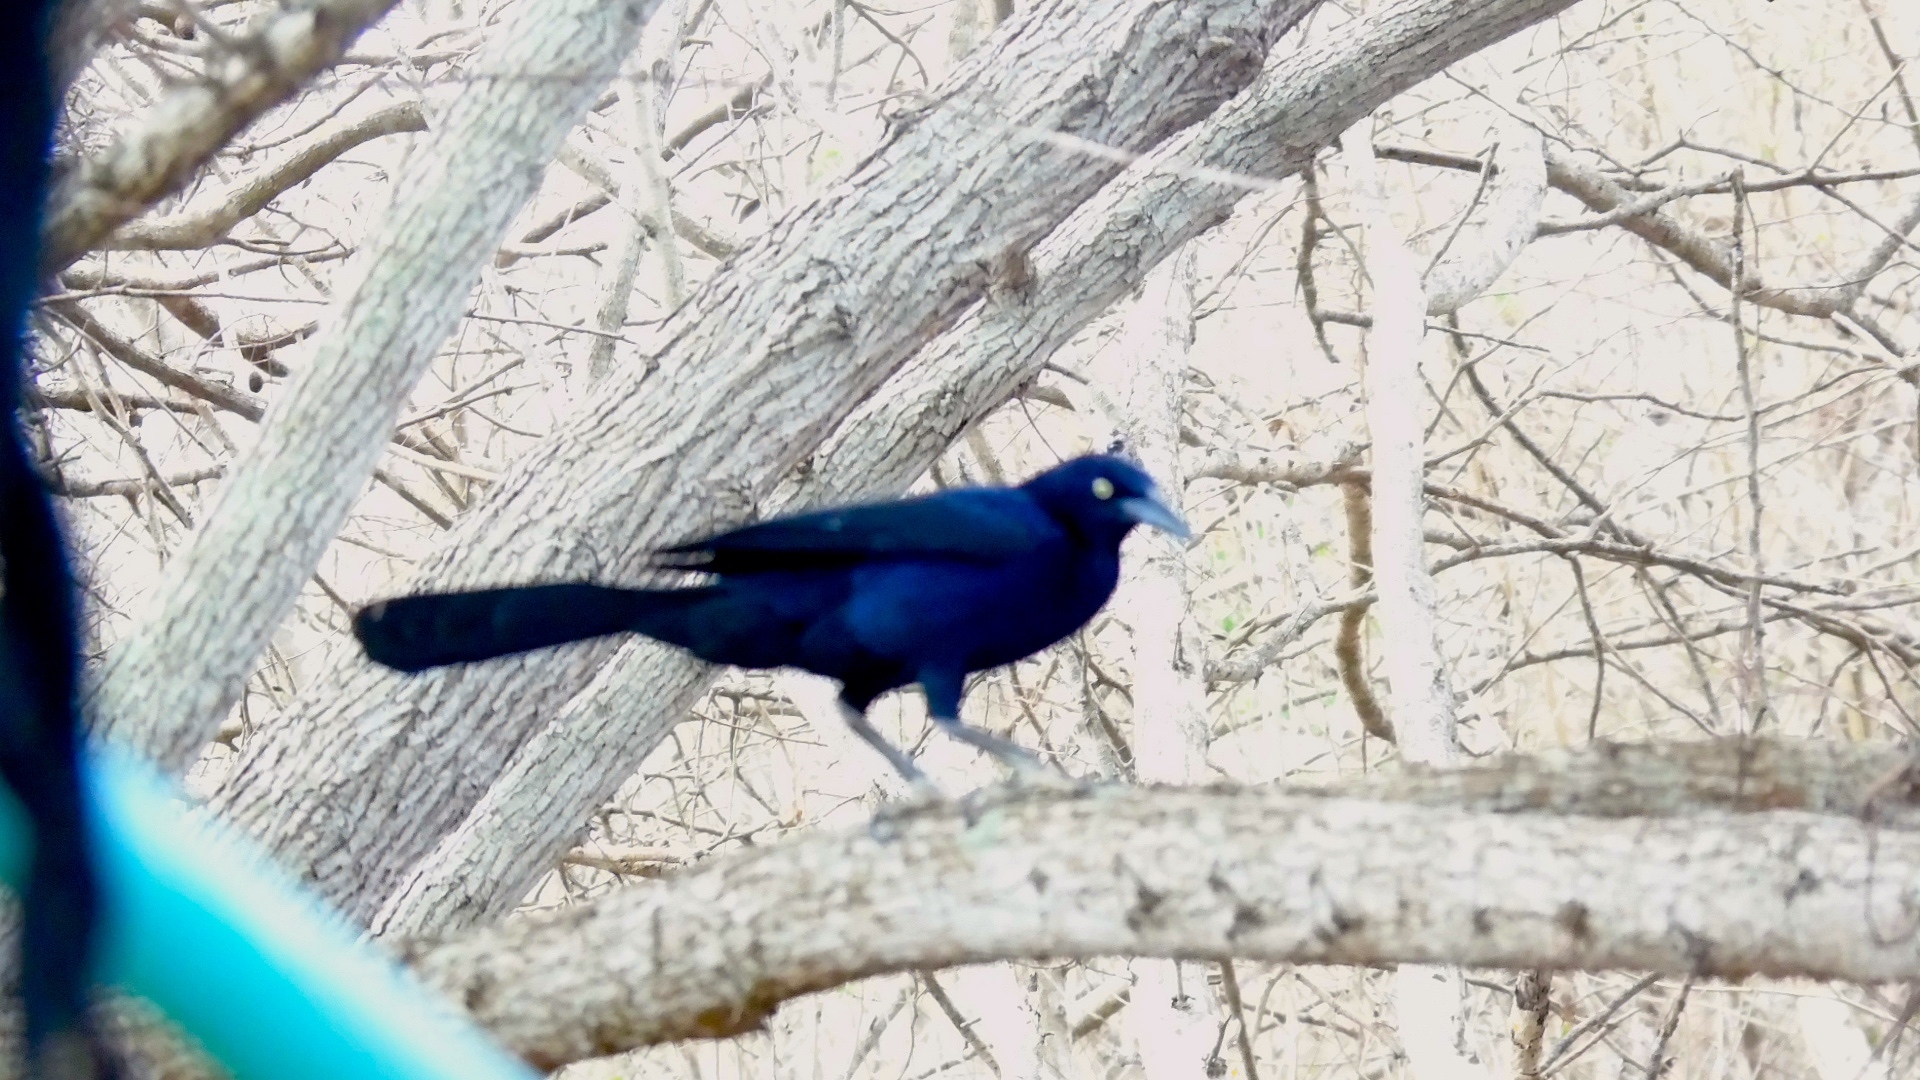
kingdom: Animalia
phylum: Chordata
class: Aves
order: Passeriformes
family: Icteridae
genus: Quiscalus
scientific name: Quiscalus mexicanus
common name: Great-tailed grackle
